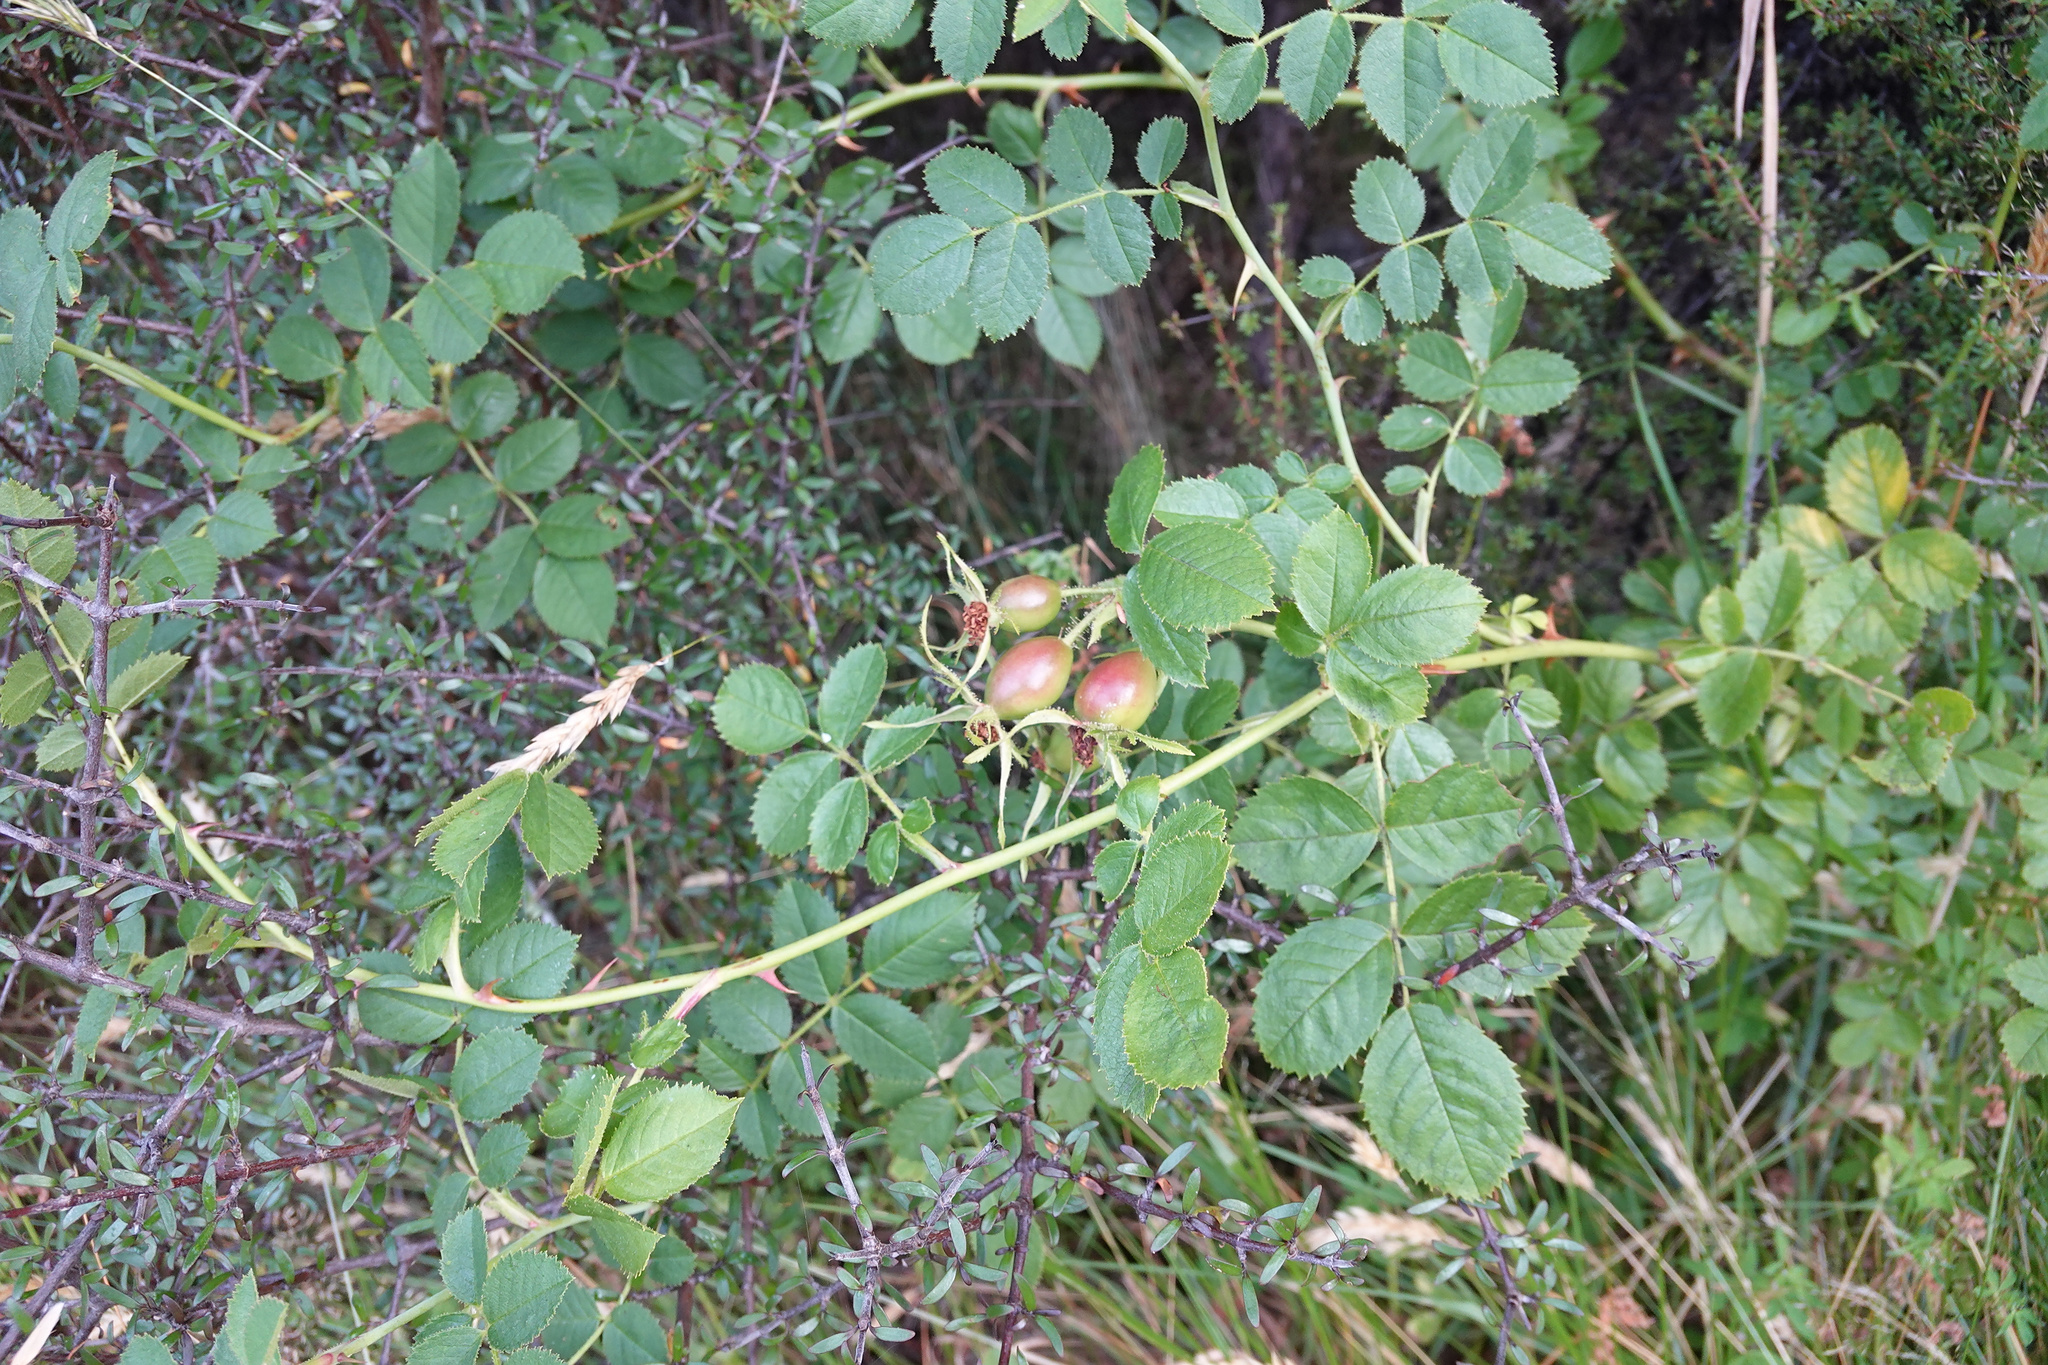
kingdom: Plantae
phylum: Tracheophyta
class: Magnoliopsida
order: Rosales
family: Rosaceae
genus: Rosa
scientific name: Rosa rubiginosa
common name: Sweet-briar
